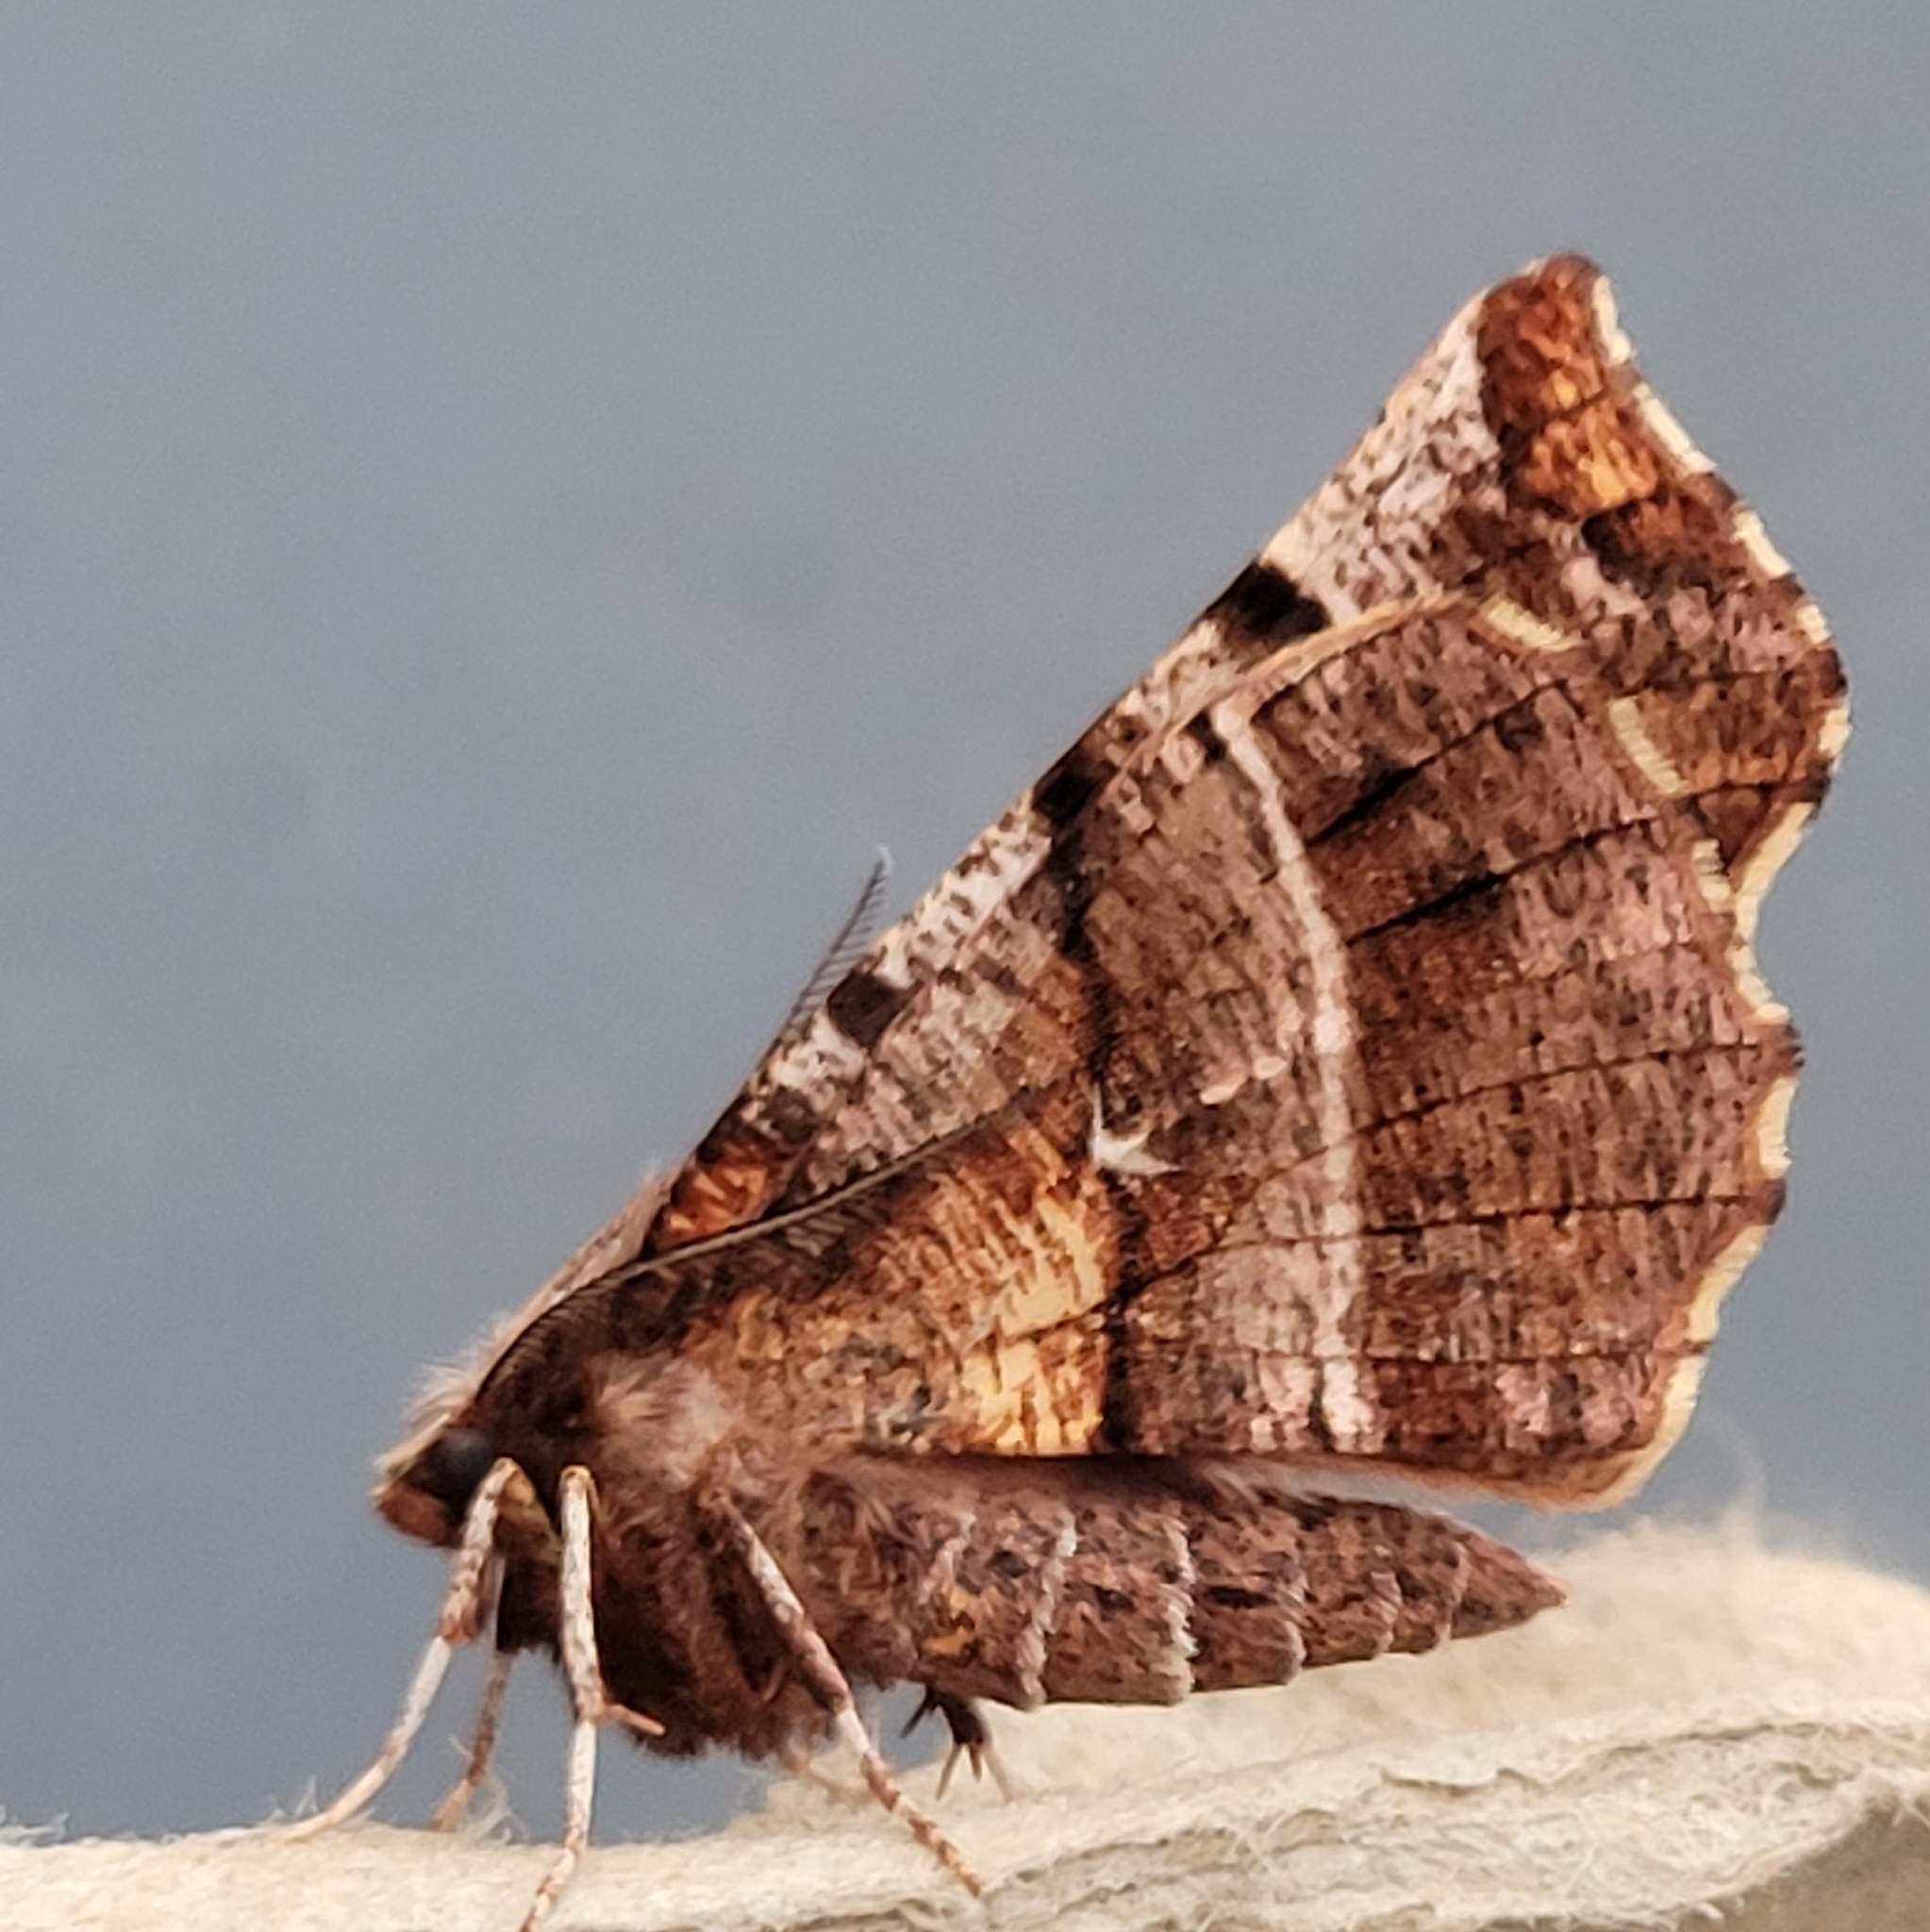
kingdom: Animalia
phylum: Arthropoda
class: Insecta
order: Lepidoptera
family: Geometridae
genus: Selenia
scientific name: Selenia dentaria
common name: Early thorn
